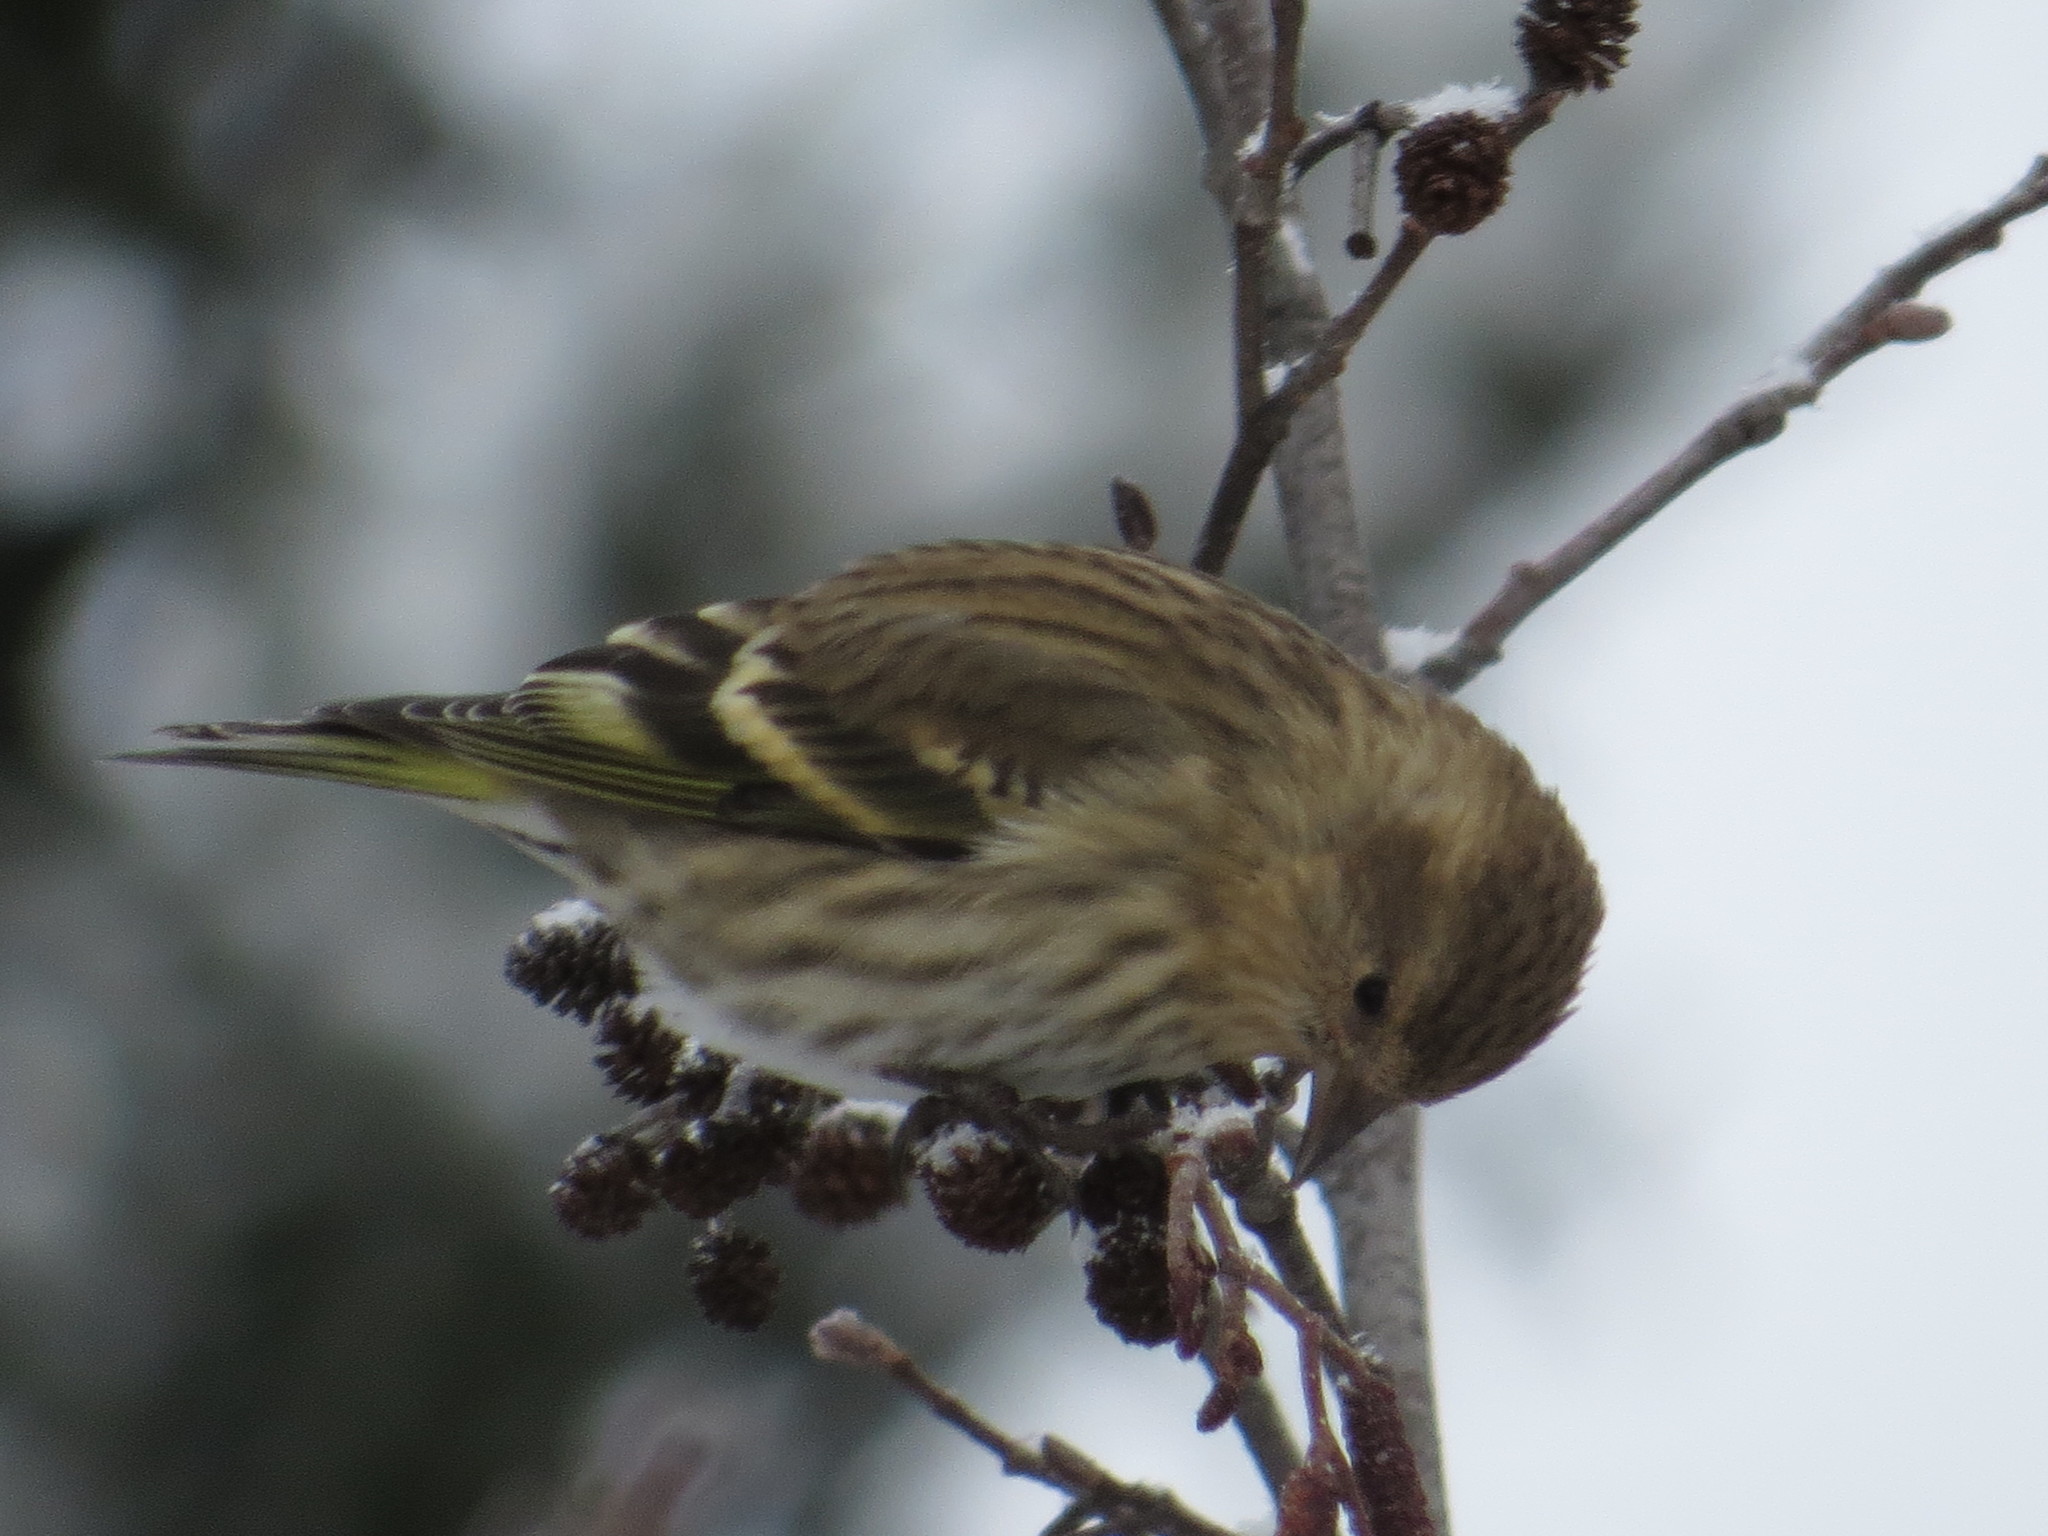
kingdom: Animalia
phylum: Chordata
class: Aves
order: Passeriformes
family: Fringillidae
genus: Spinus
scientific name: Spinus pinus
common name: Pine siskin
